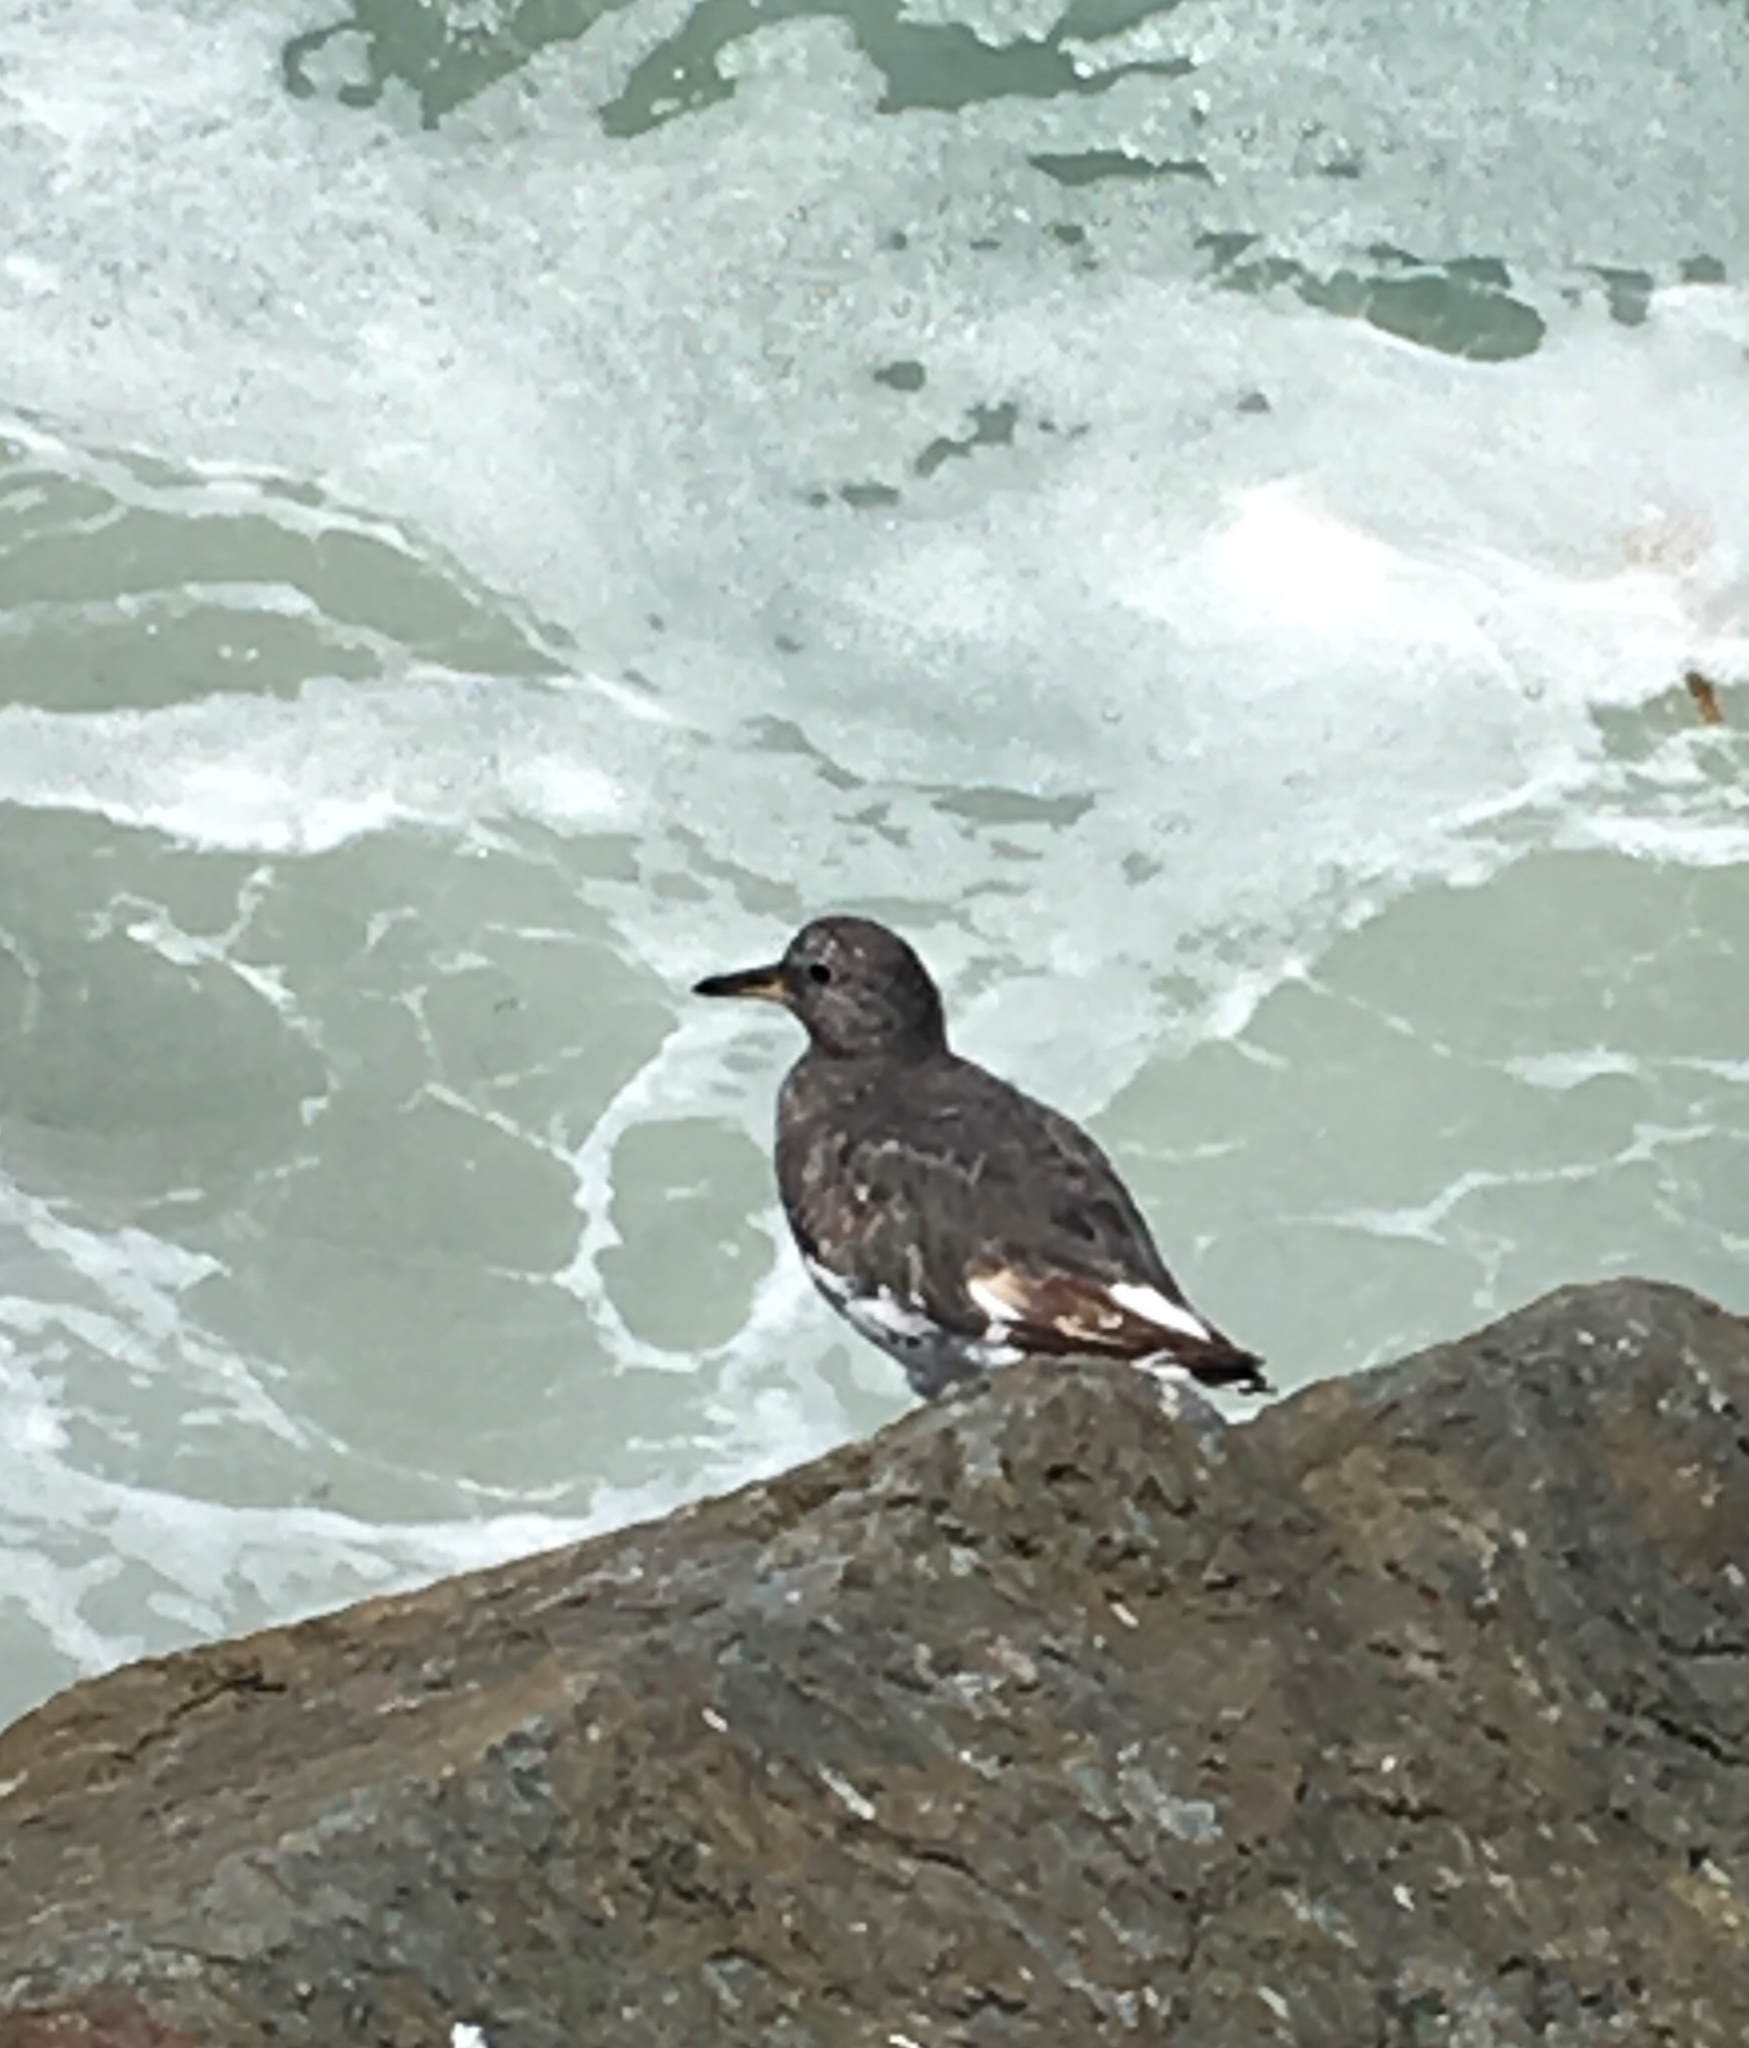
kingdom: Animalia
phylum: Chordata
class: Aves
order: Charadriiformes
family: Scolopacidae
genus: Calidris
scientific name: Calidris virgata
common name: Surfbird
